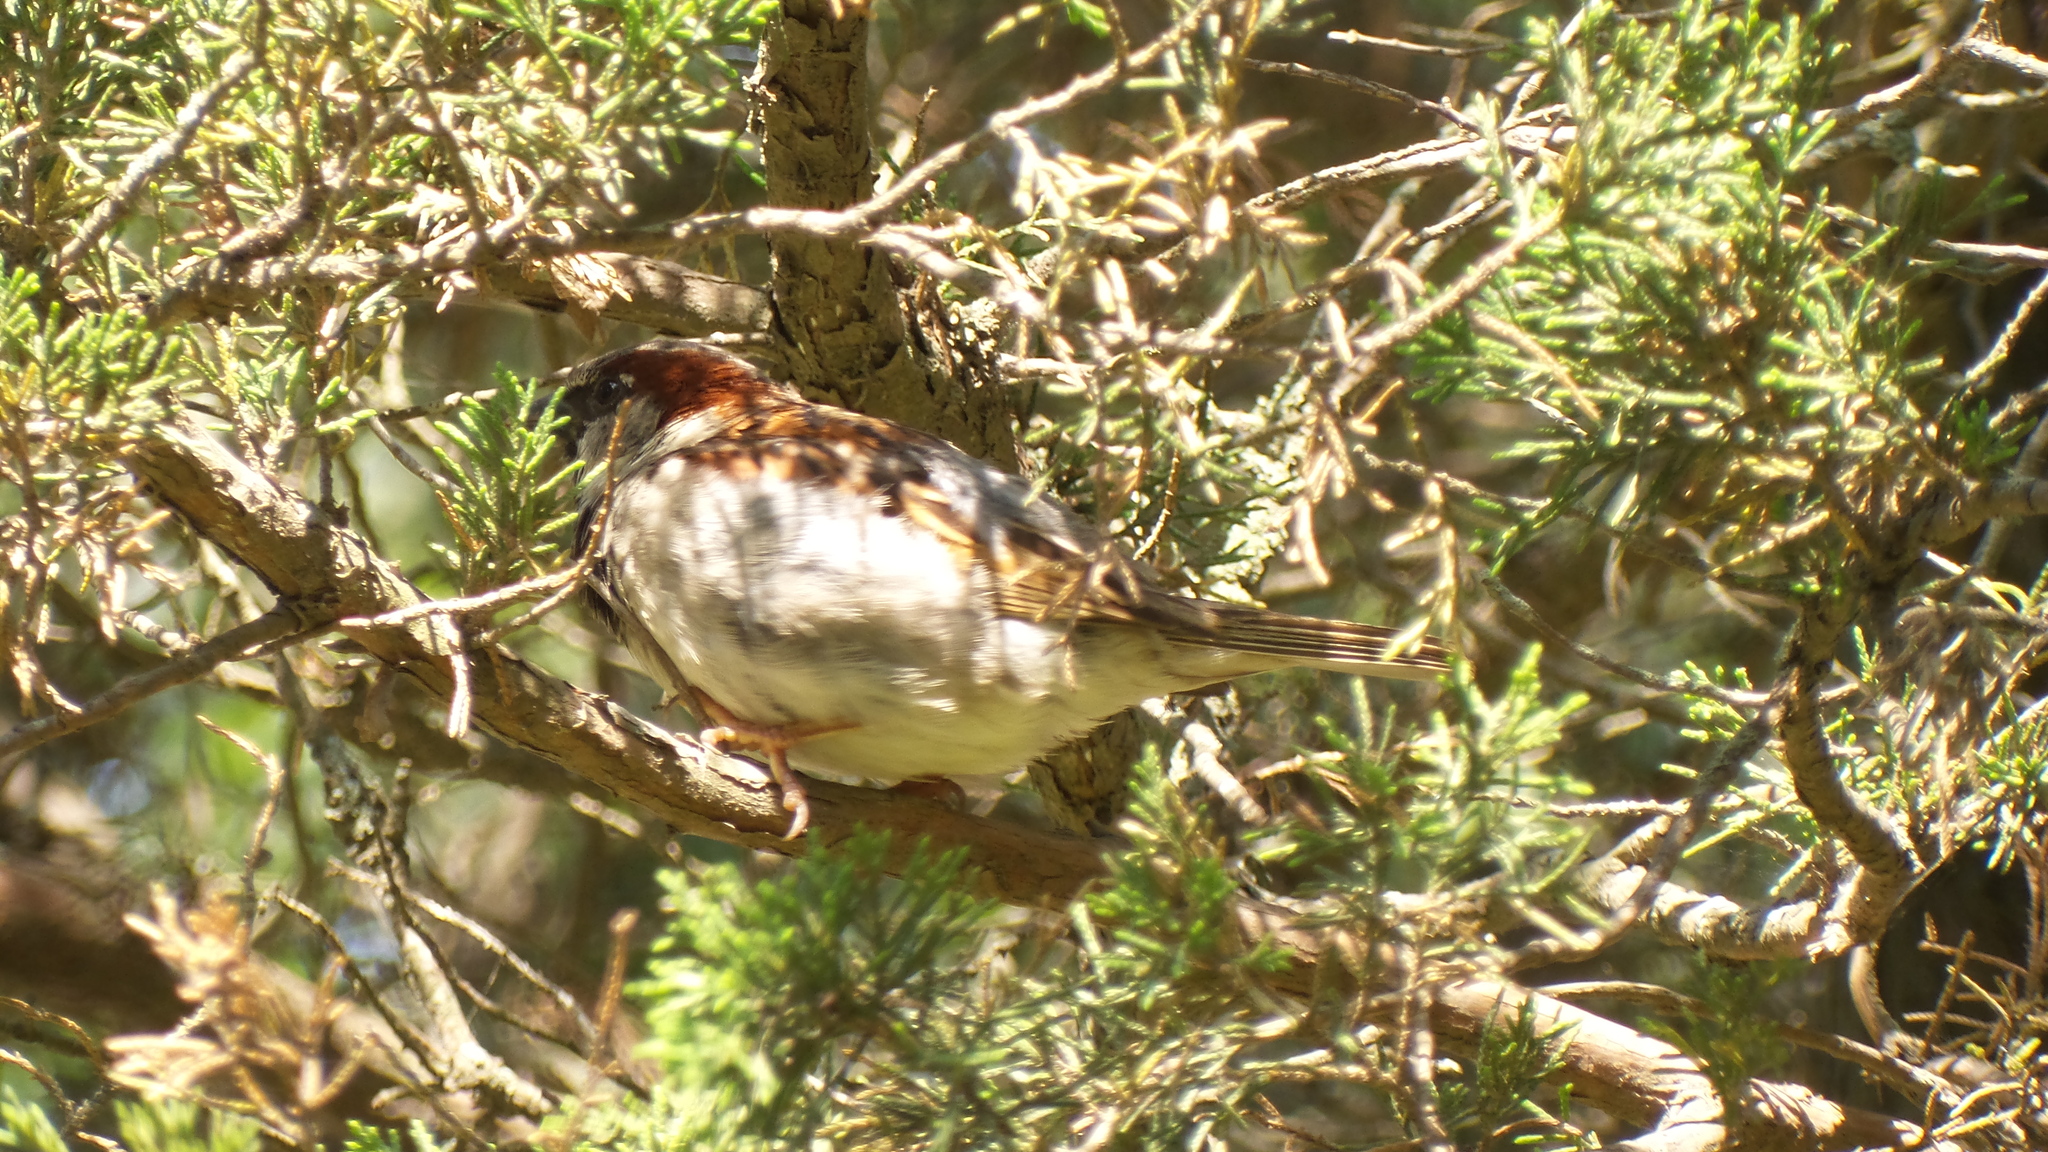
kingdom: Animalia
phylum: Chordata
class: Aves
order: Passeriformes
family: Passeridae
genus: Passer
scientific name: Passer domesticus
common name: House sparrow
